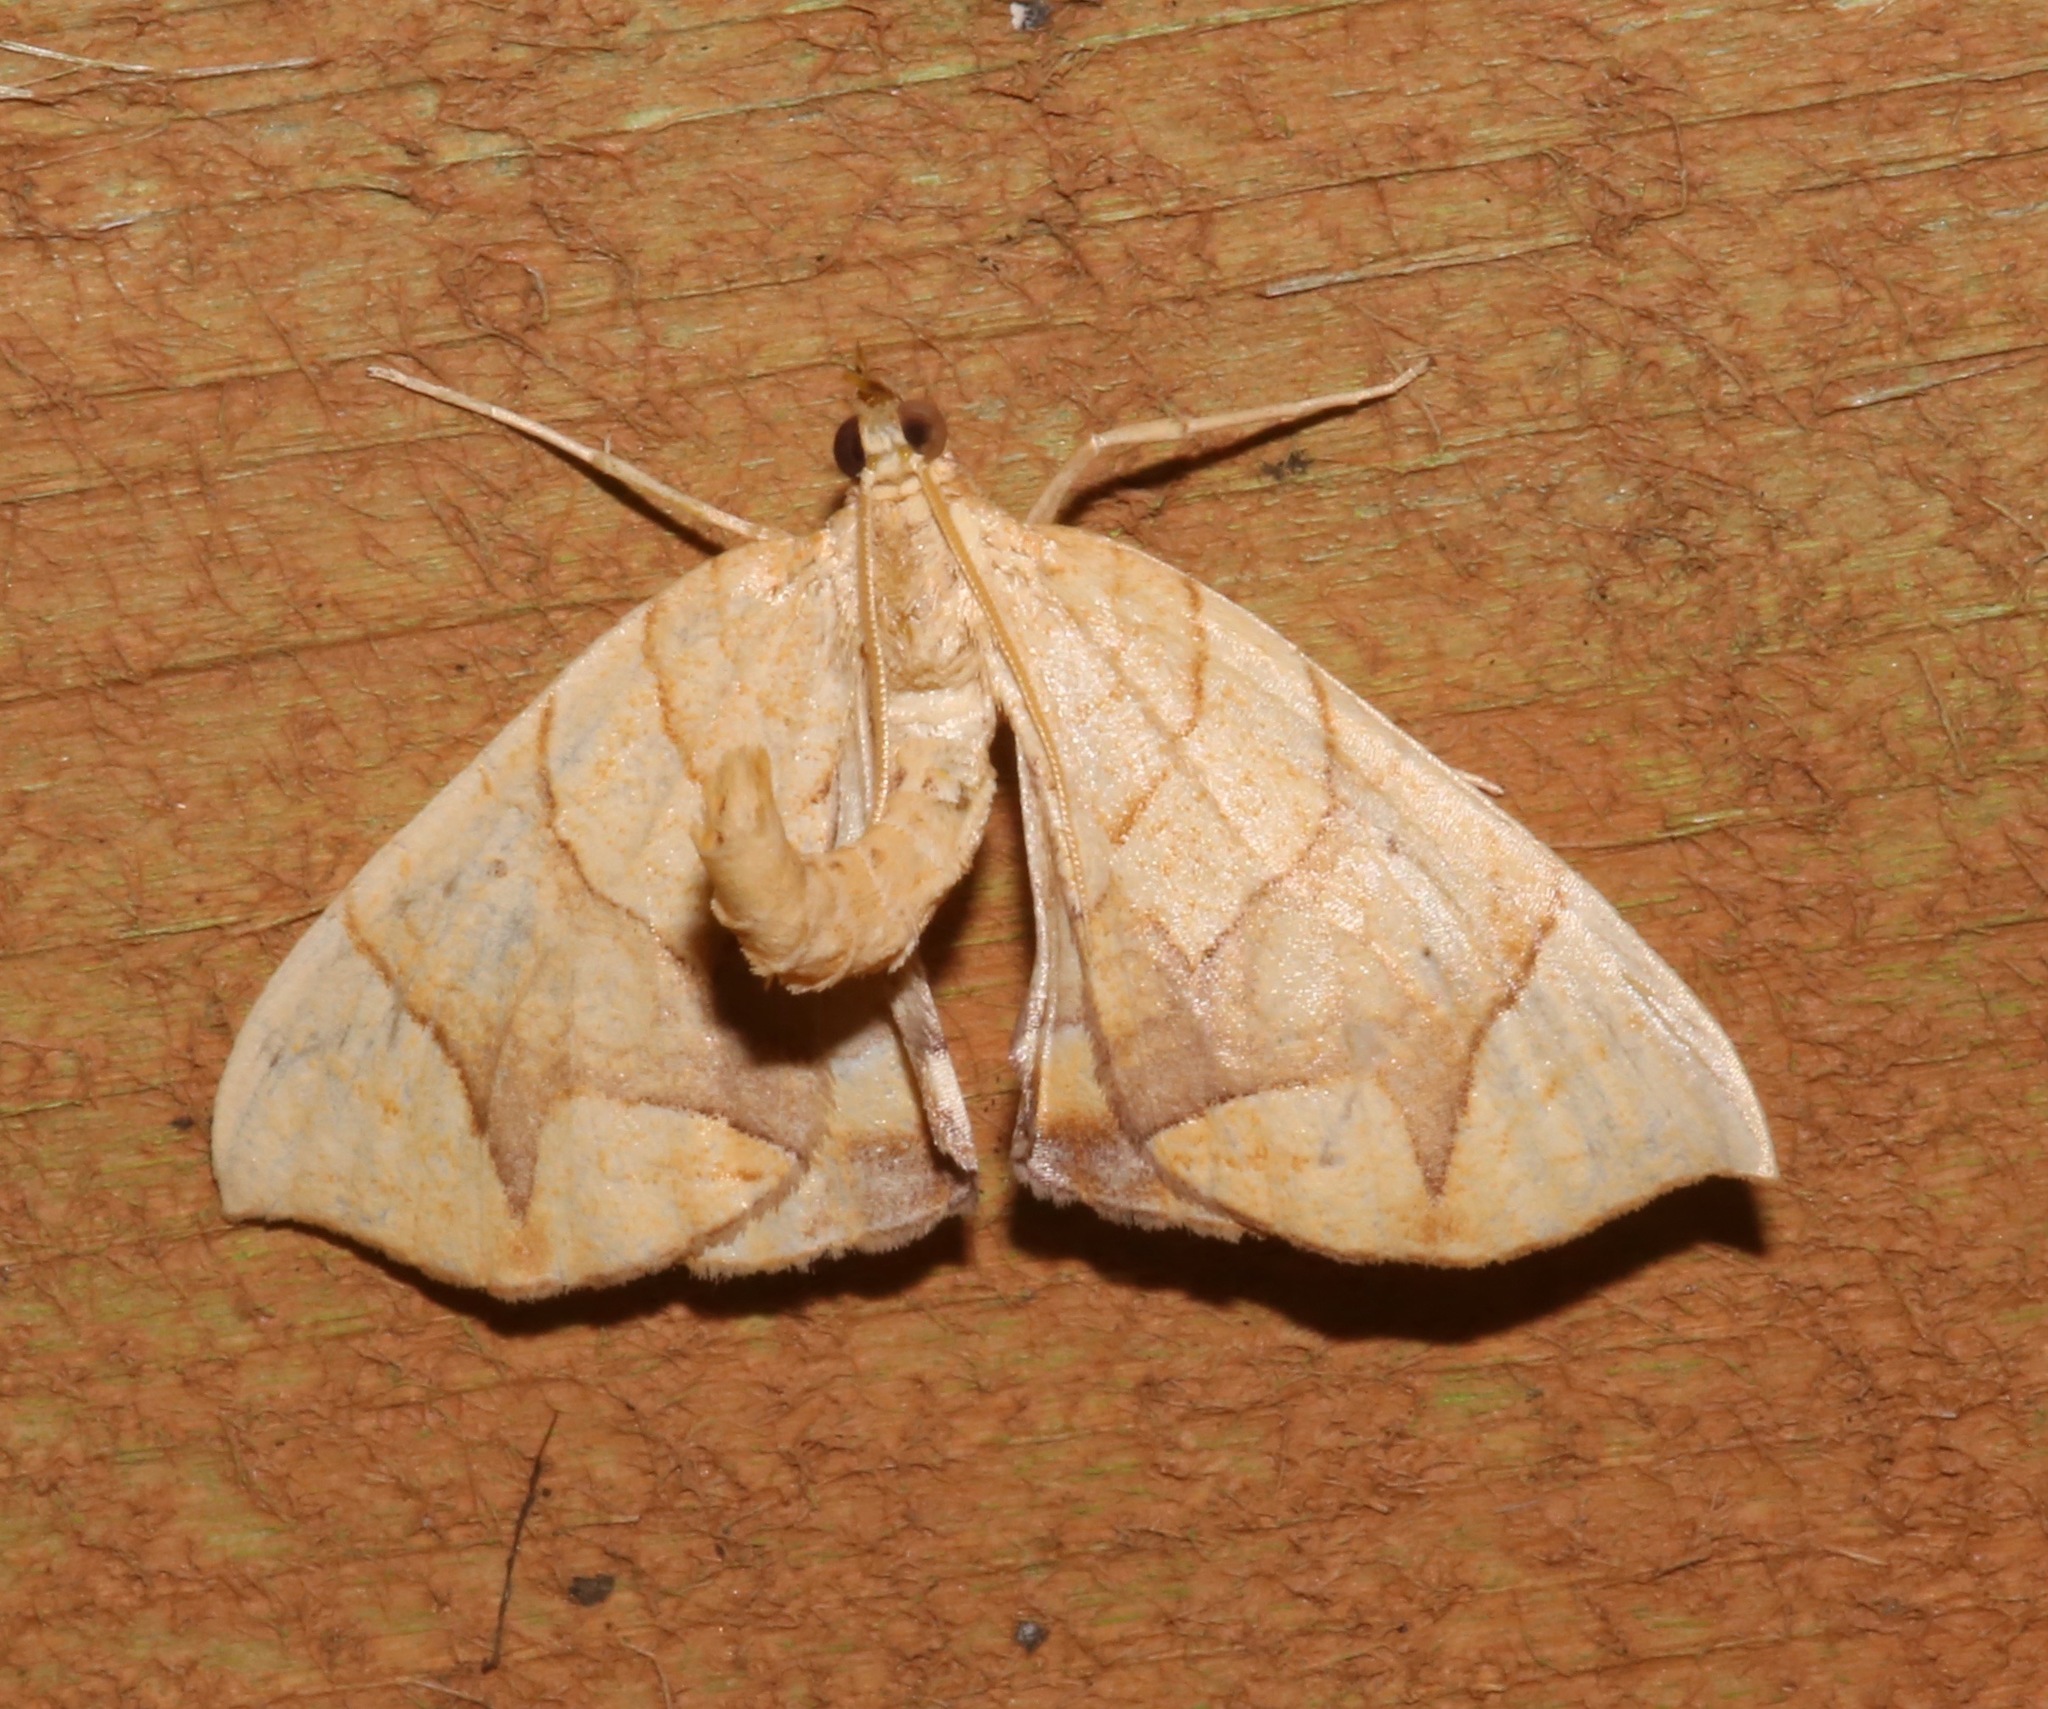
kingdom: Animalia
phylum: Arthropoda
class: Insecta
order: Lepidoptera
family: Geometridae
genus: Eulithis
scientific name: Eulithis
